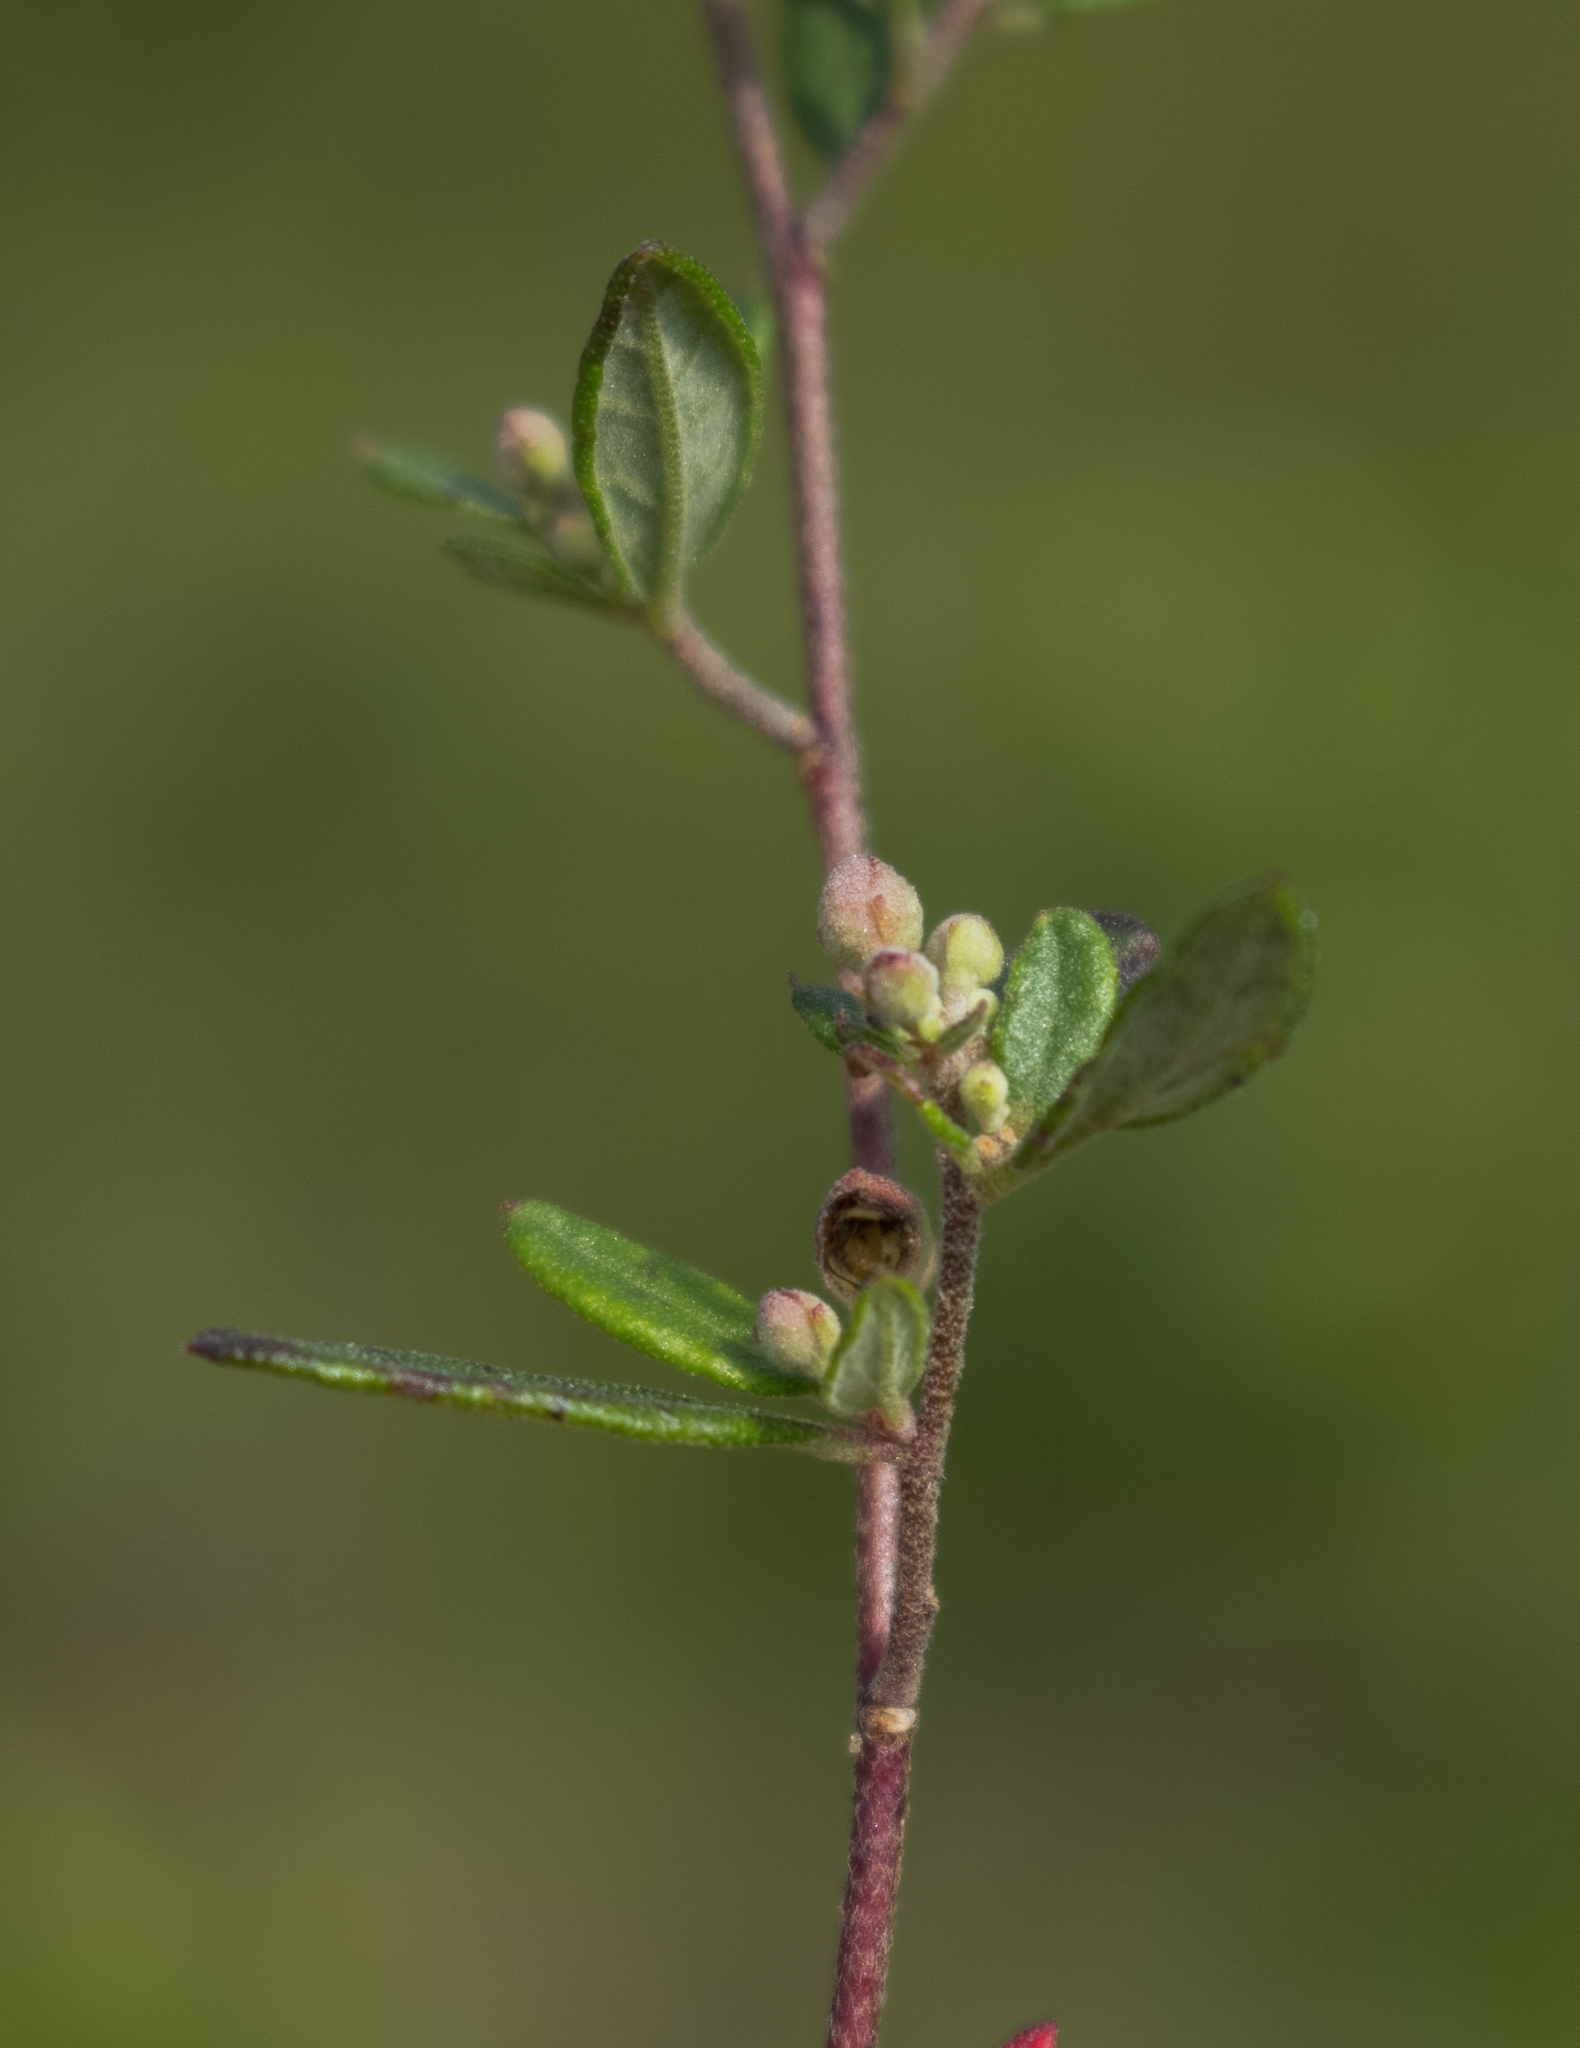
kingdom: Plantae
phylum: Tracheophyta
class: Magnoliopsida
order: Malvales
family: Cistaceae
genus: Crocanthemum
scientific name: Crocanthemum bicknellii
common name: Hoary frostweed
